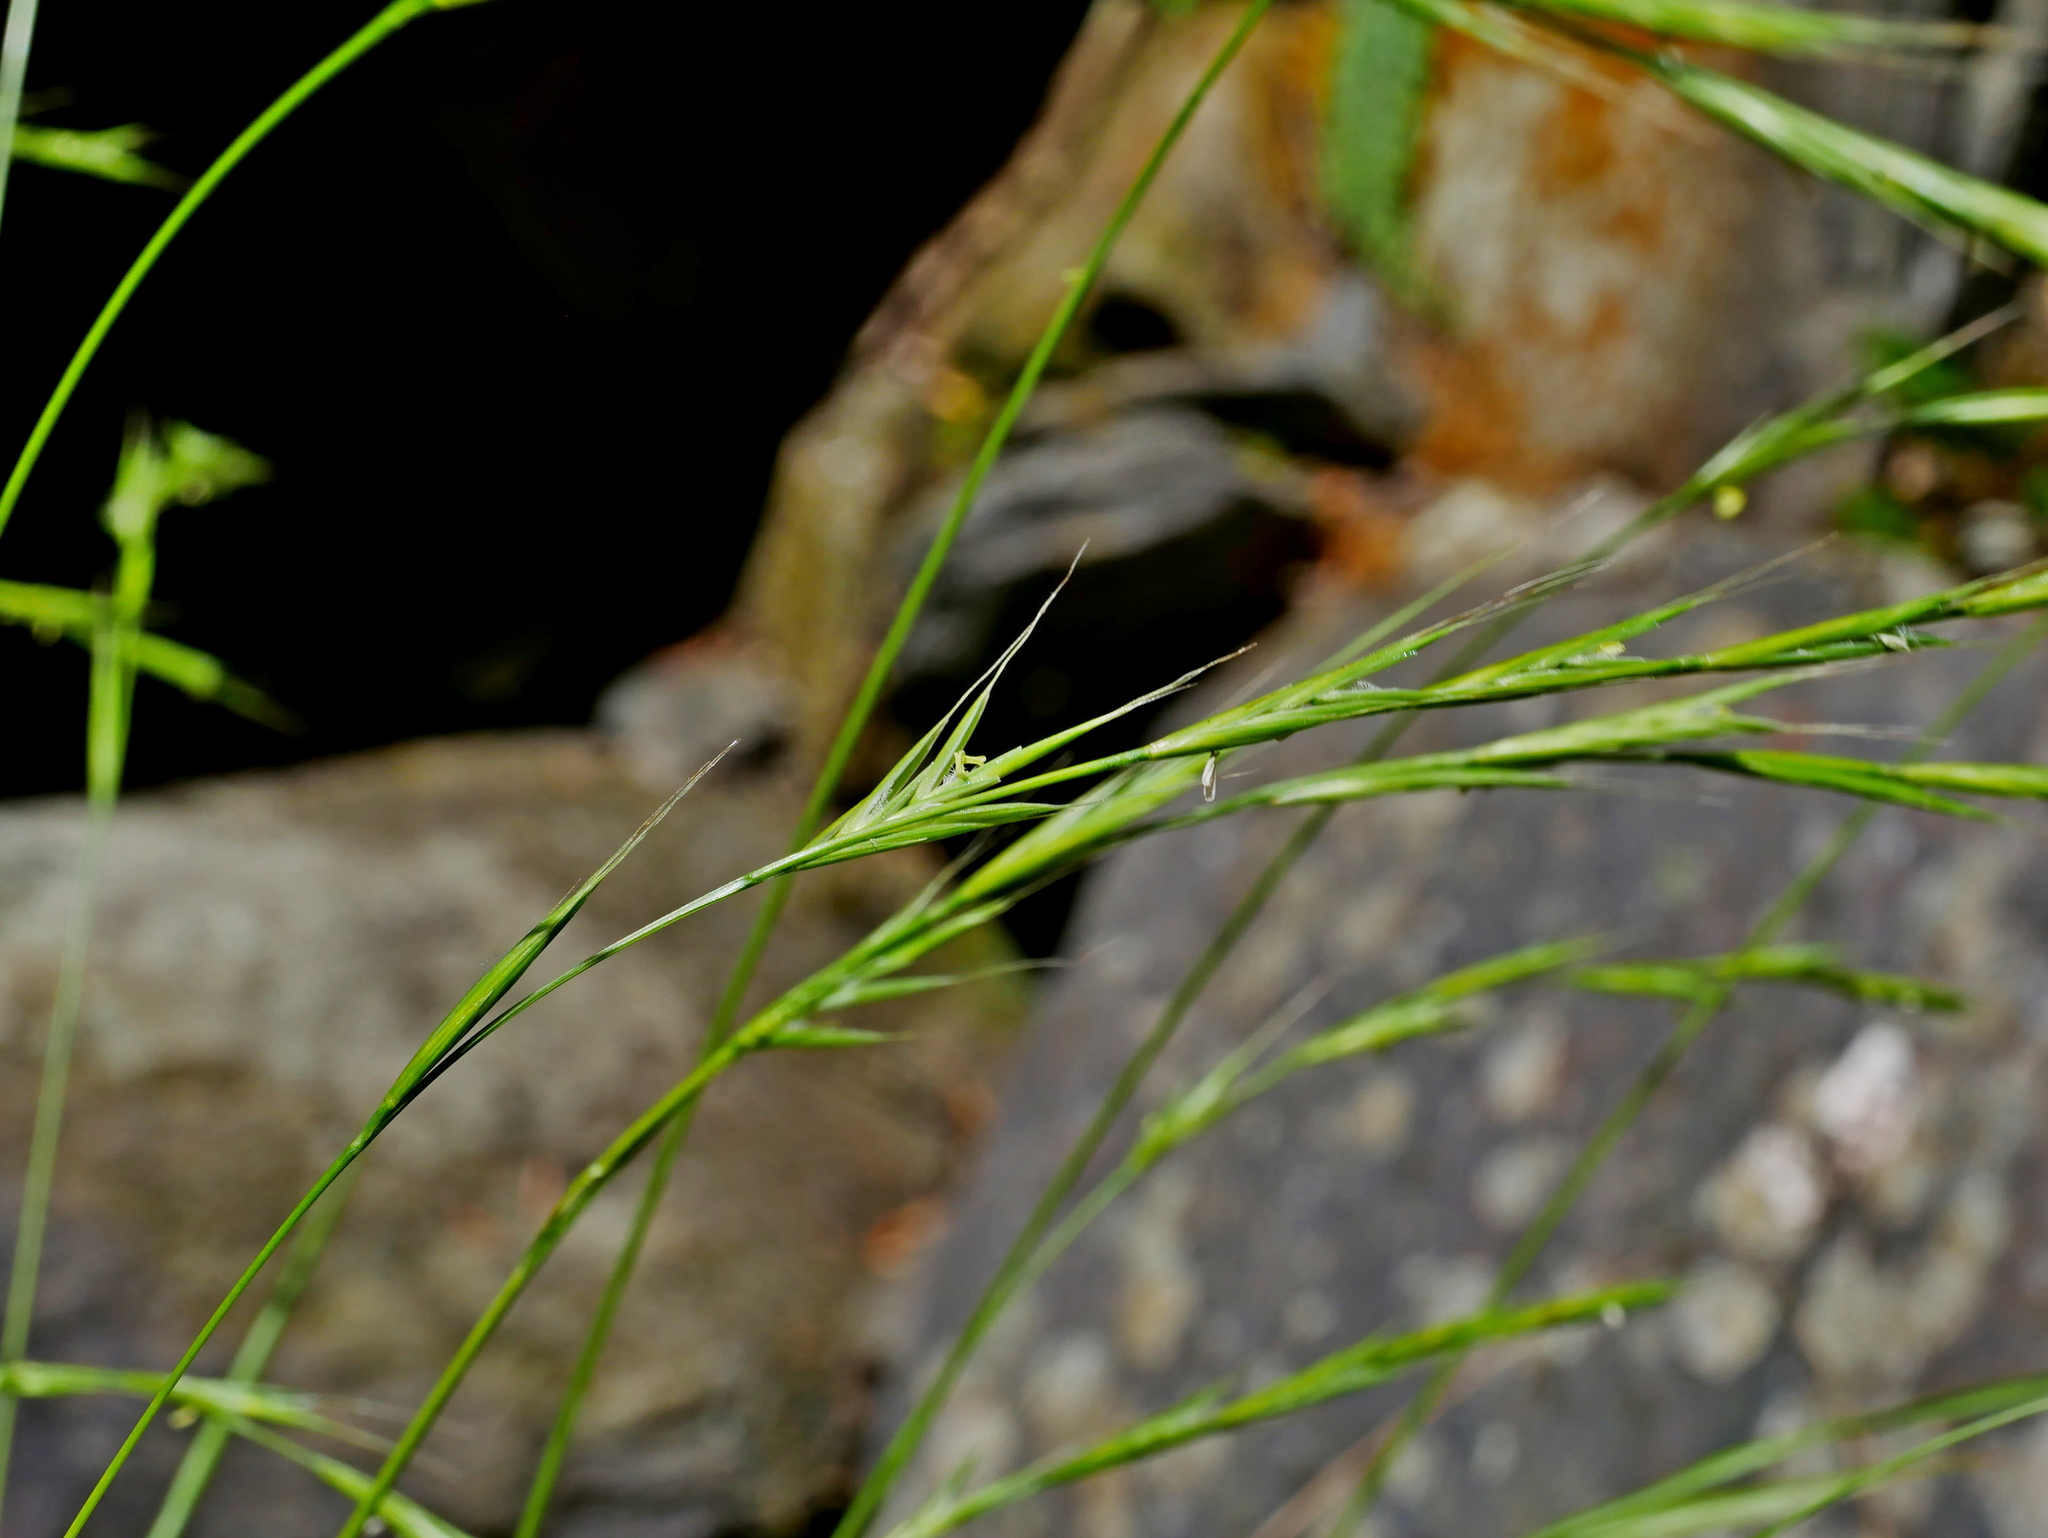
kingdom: Plantae
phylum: Tracheophyta
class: Liliopsida
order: Poales
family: Poaceae
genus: Brachypodium
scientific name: Brachypodium sylvaticum
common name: False-brome
